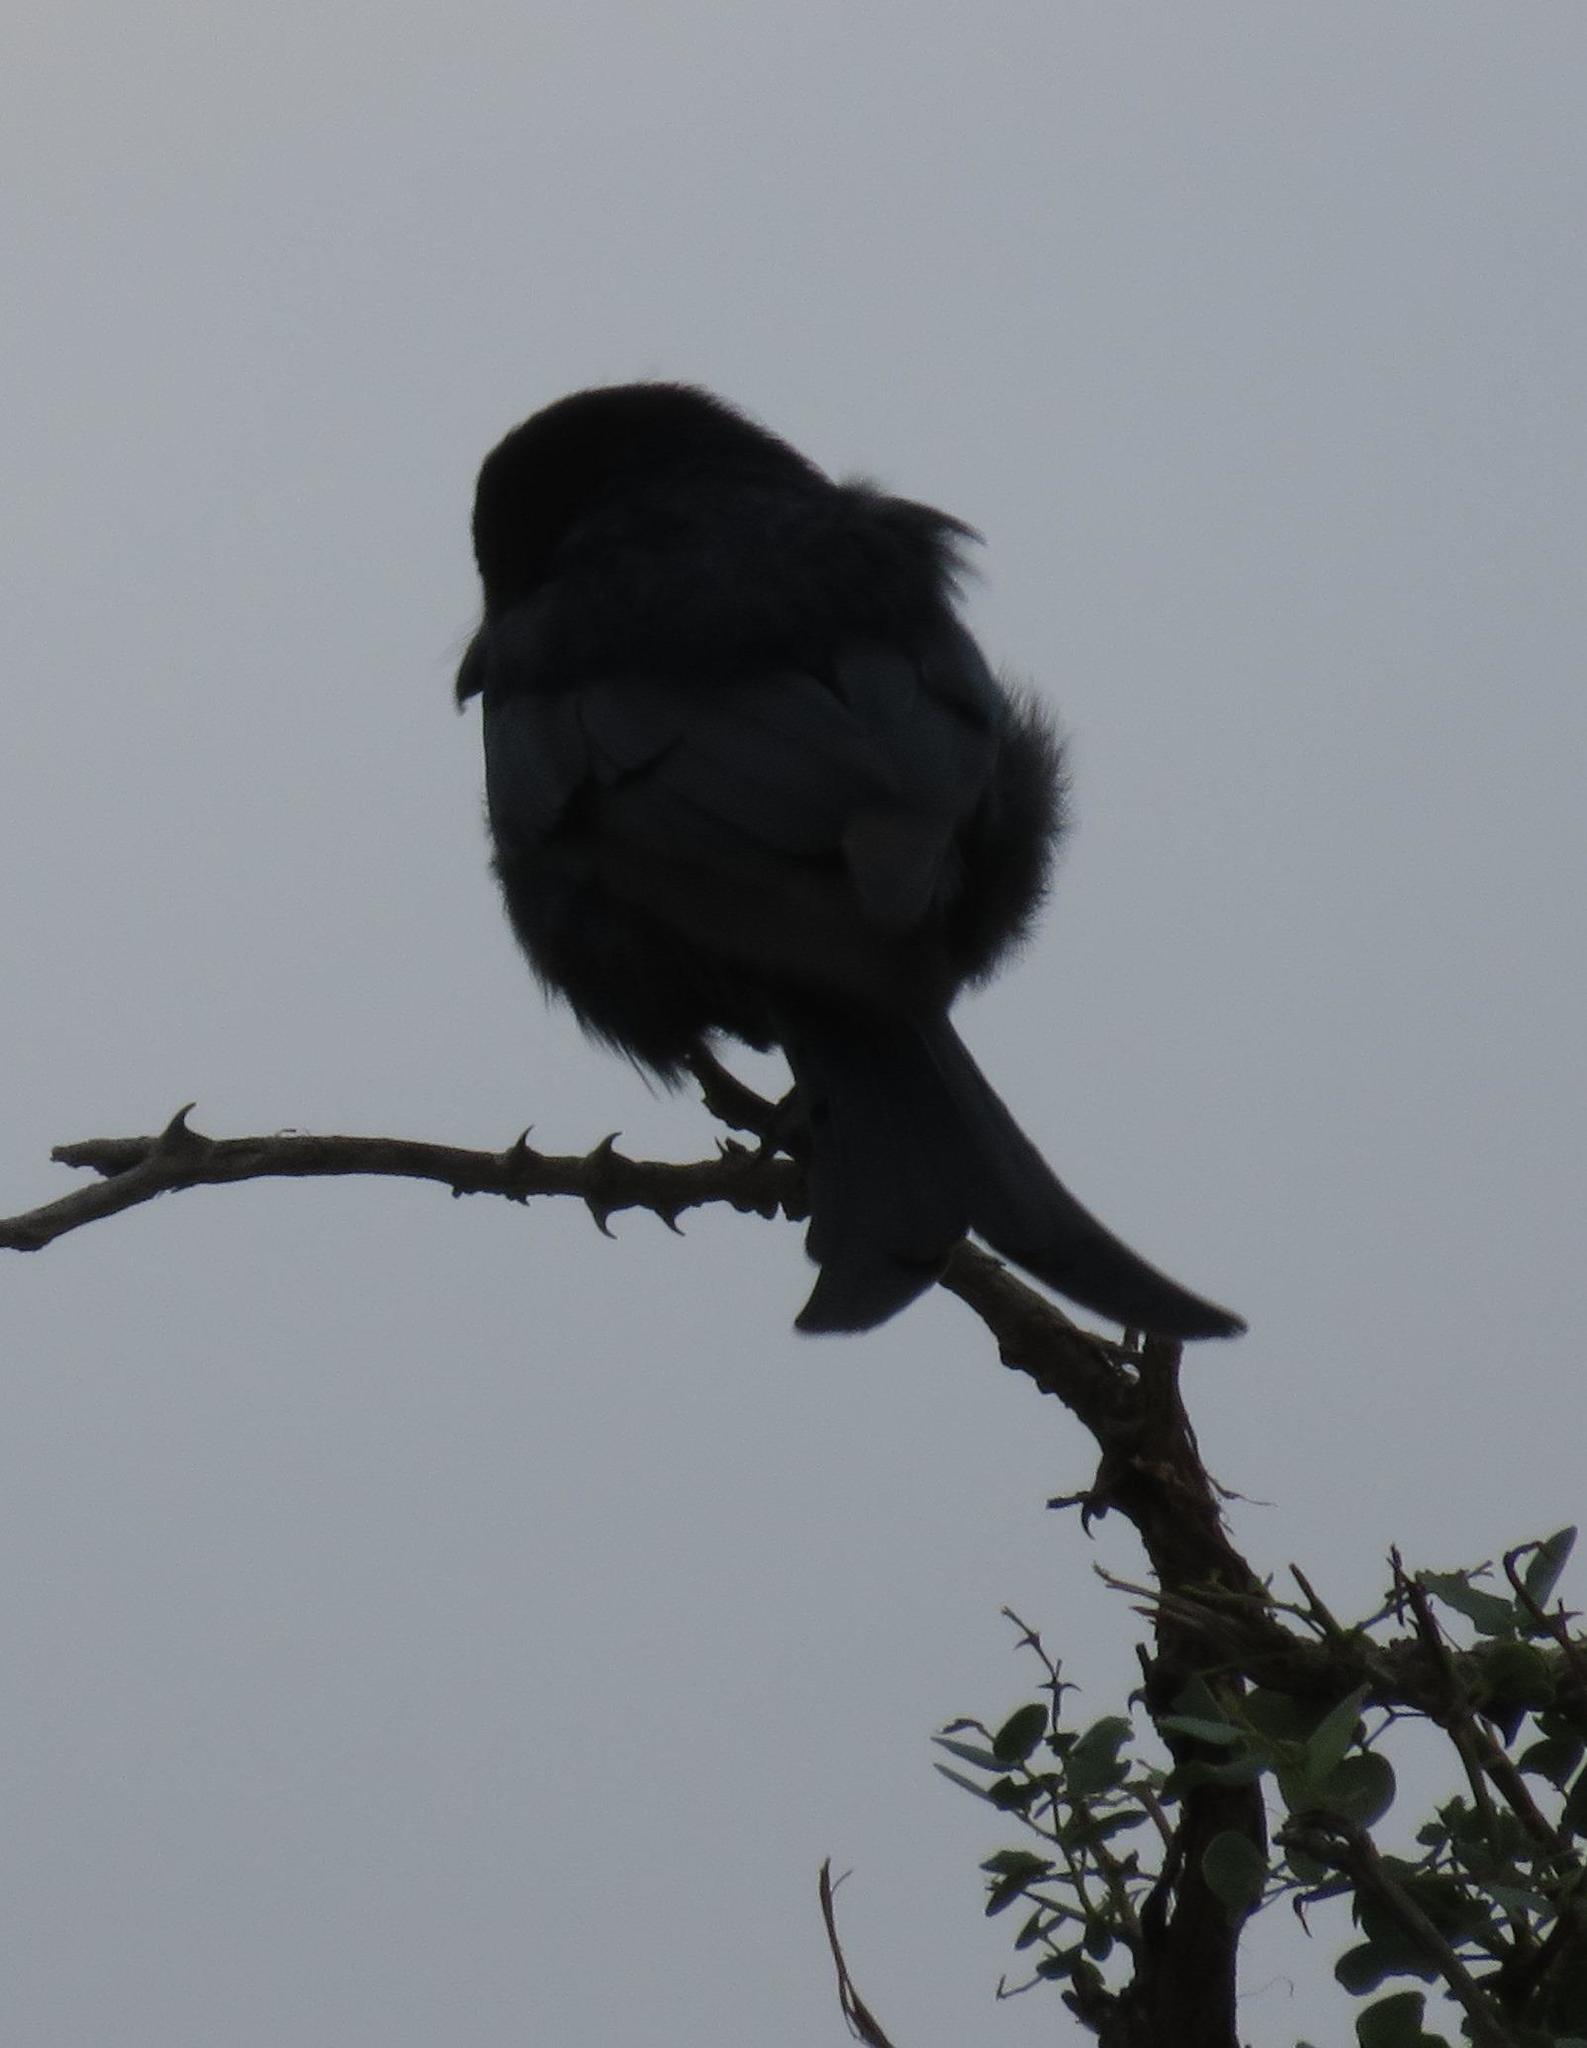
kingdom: Animalia
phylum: Chordata
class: Aves
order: Passeriformes
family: Dicruridae
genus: Dicrurus
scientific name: Dicrurus adsimilis
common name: Fork-tailed drongo
